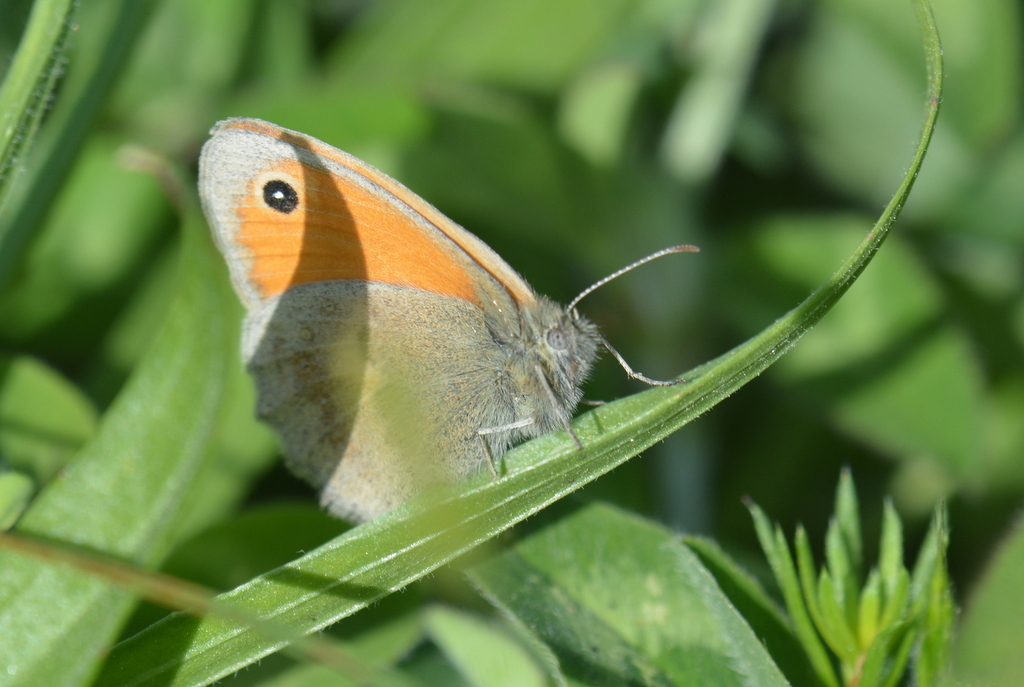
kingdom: Animalia
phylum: Arthropoda
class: Insecta
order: Lepidoptera
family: Nymphalidae
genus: Coenonympha
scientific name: Coenonympha pamphilus
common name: Small heath
